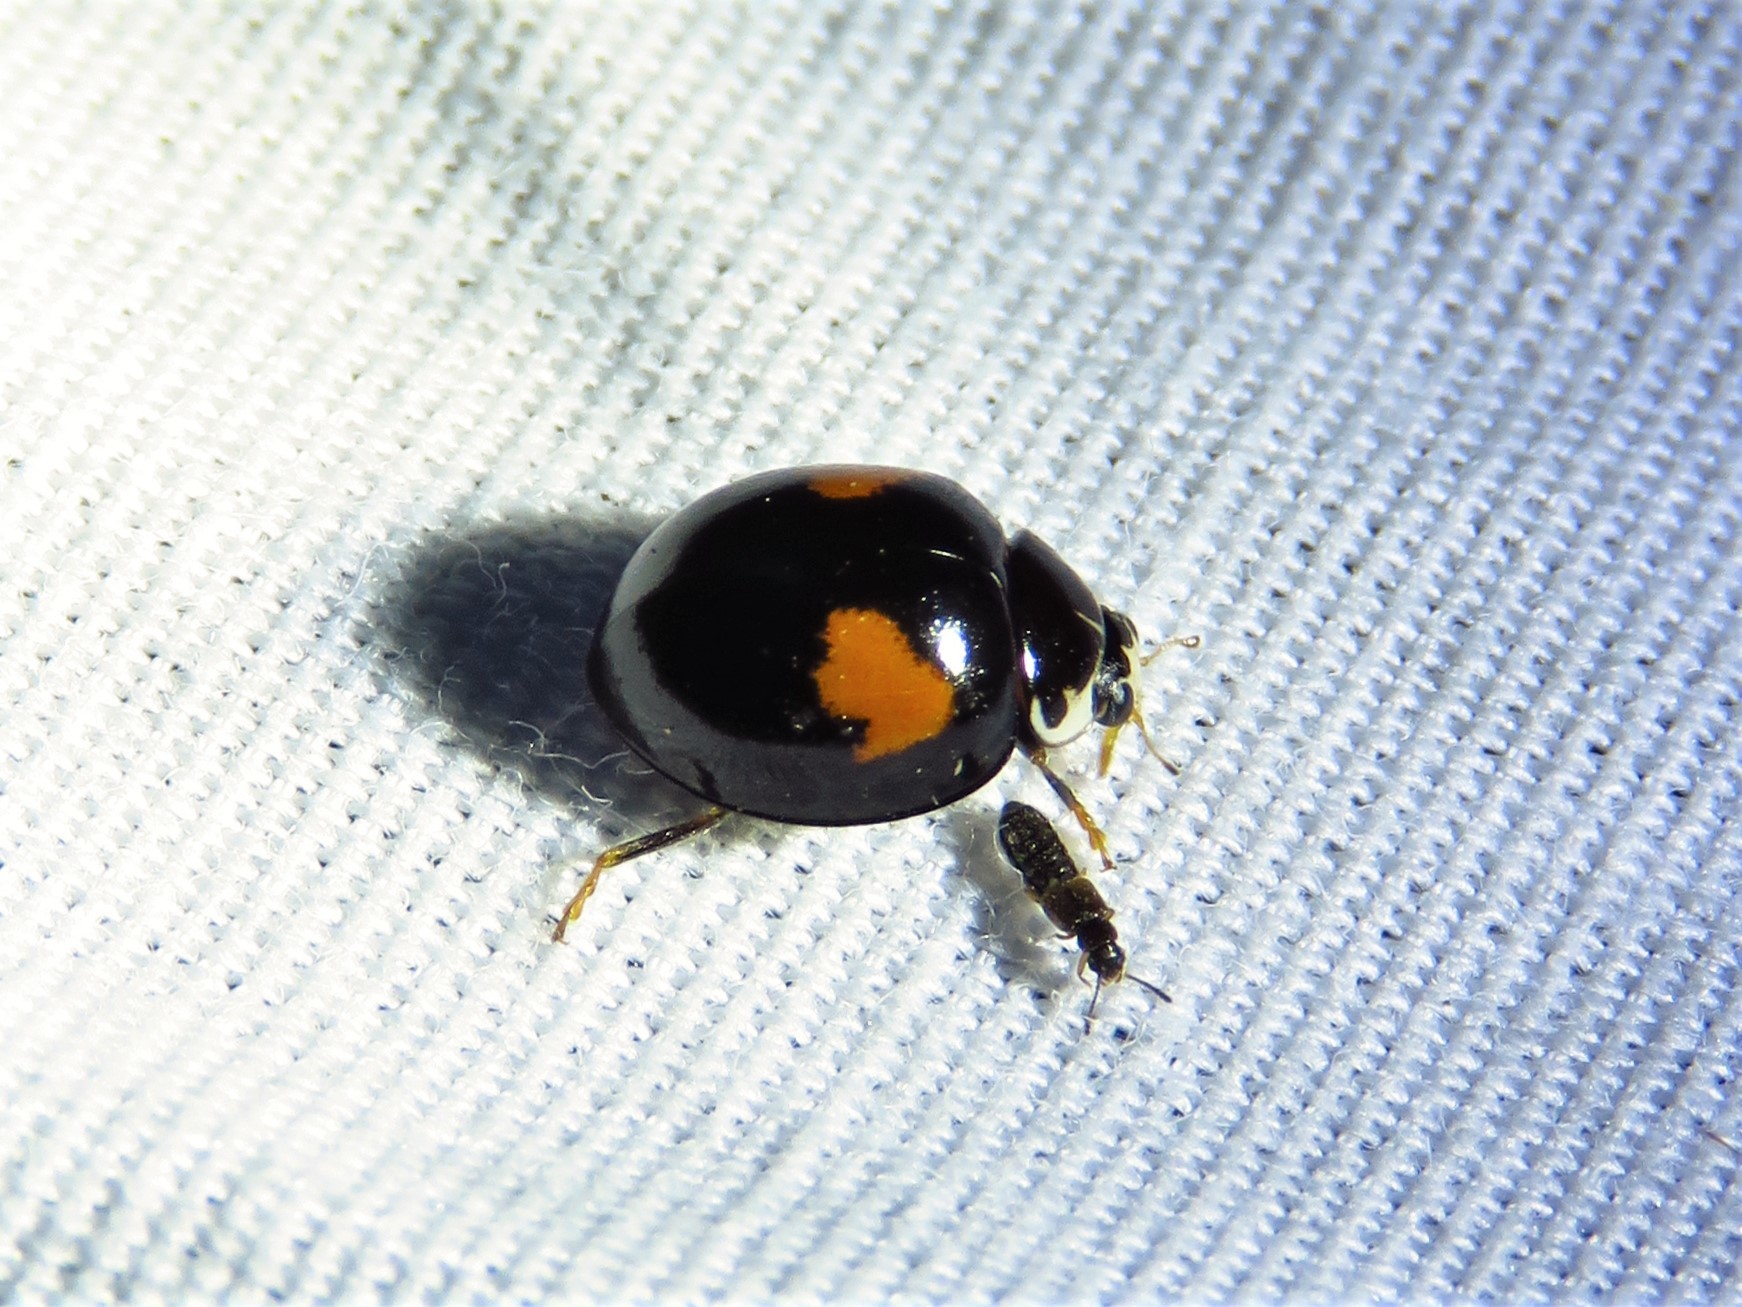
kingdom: Animalia
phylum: Arthropoda
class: Insecta
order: Coleoptera
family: Coccinellidae
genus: Olla
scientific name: Olla v-nigrum
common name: Ashy gray lady beetle
